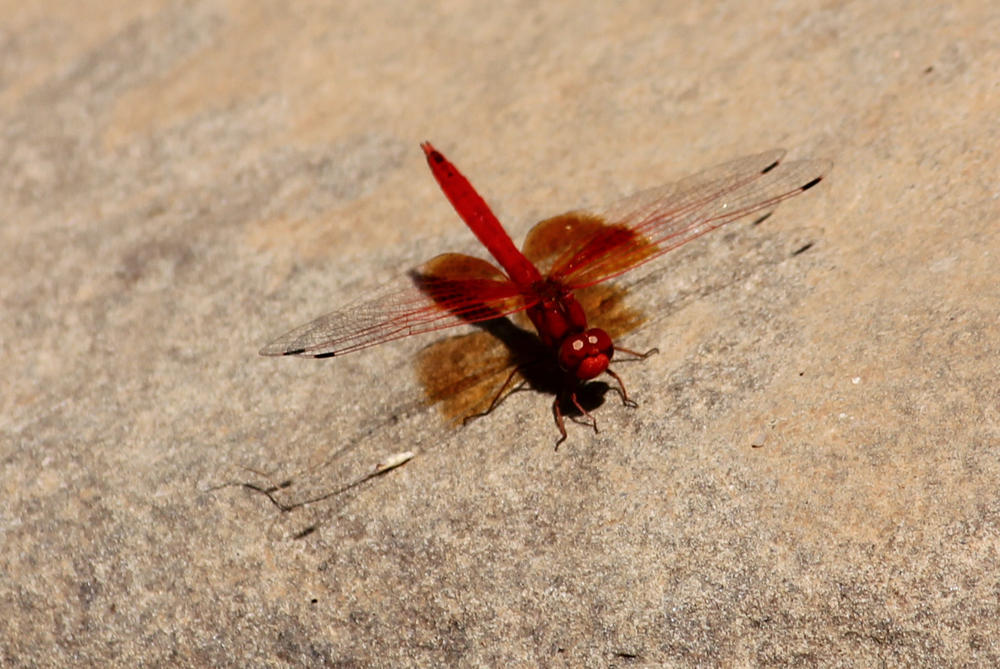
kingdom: Animalia
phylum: Arthropoda
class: Insecta
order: Odonata
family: Libellulidae
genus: Trithemis
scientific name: Trithemis kirbyi
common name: Kirby's dropwing
